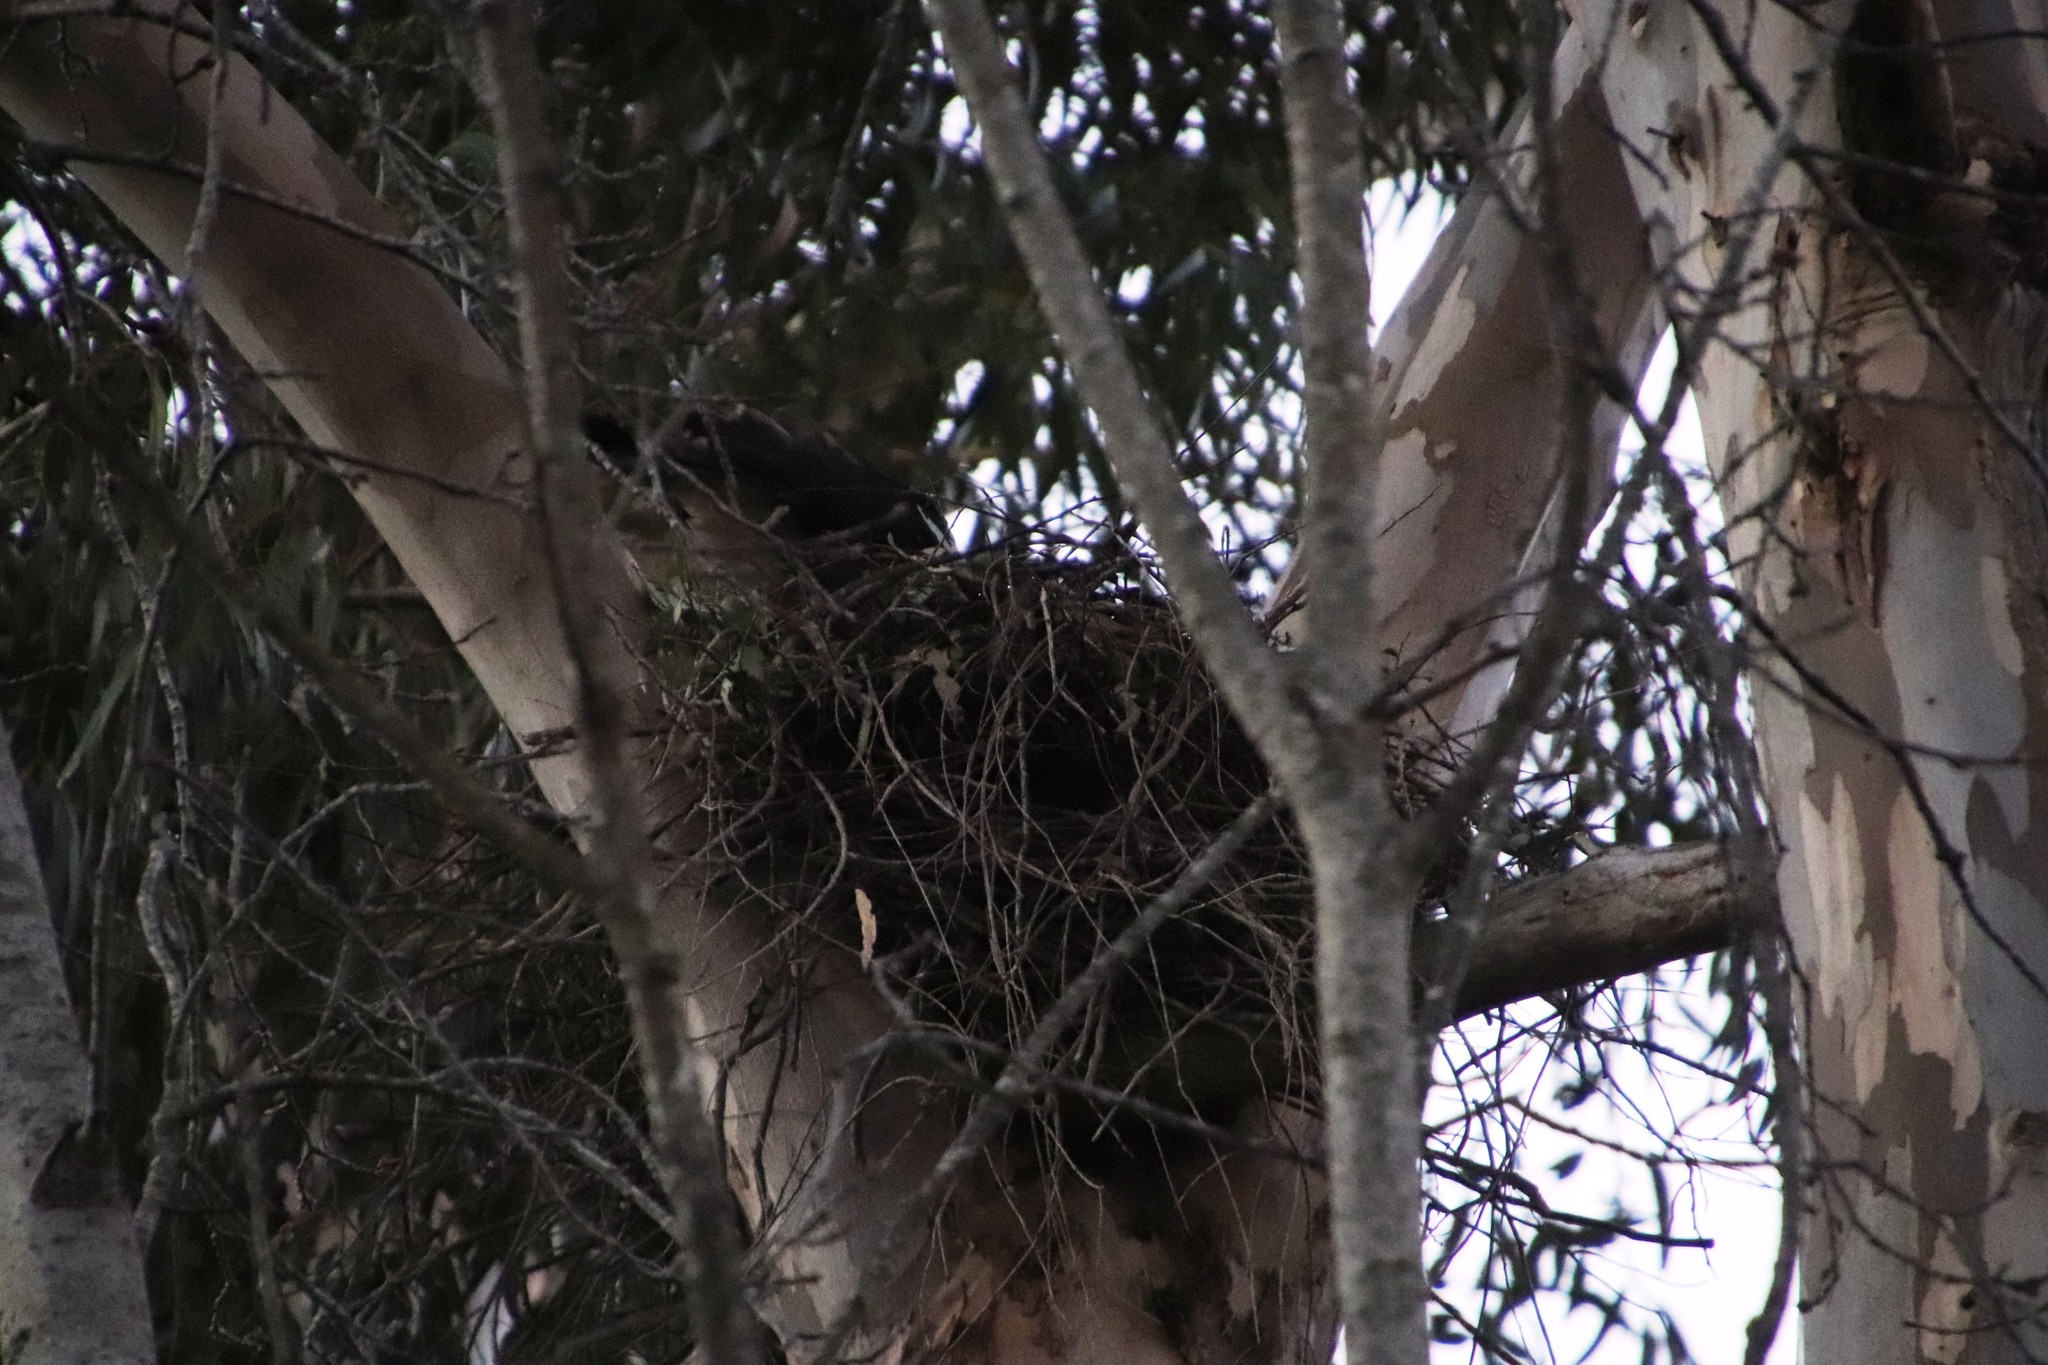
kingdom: Animalia
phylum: Chordata
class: Aves
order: Accipitriformes
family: Accipitridae
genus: Accipiter
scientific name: Accipiter melanoleucus
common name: Black sparrowhawk
